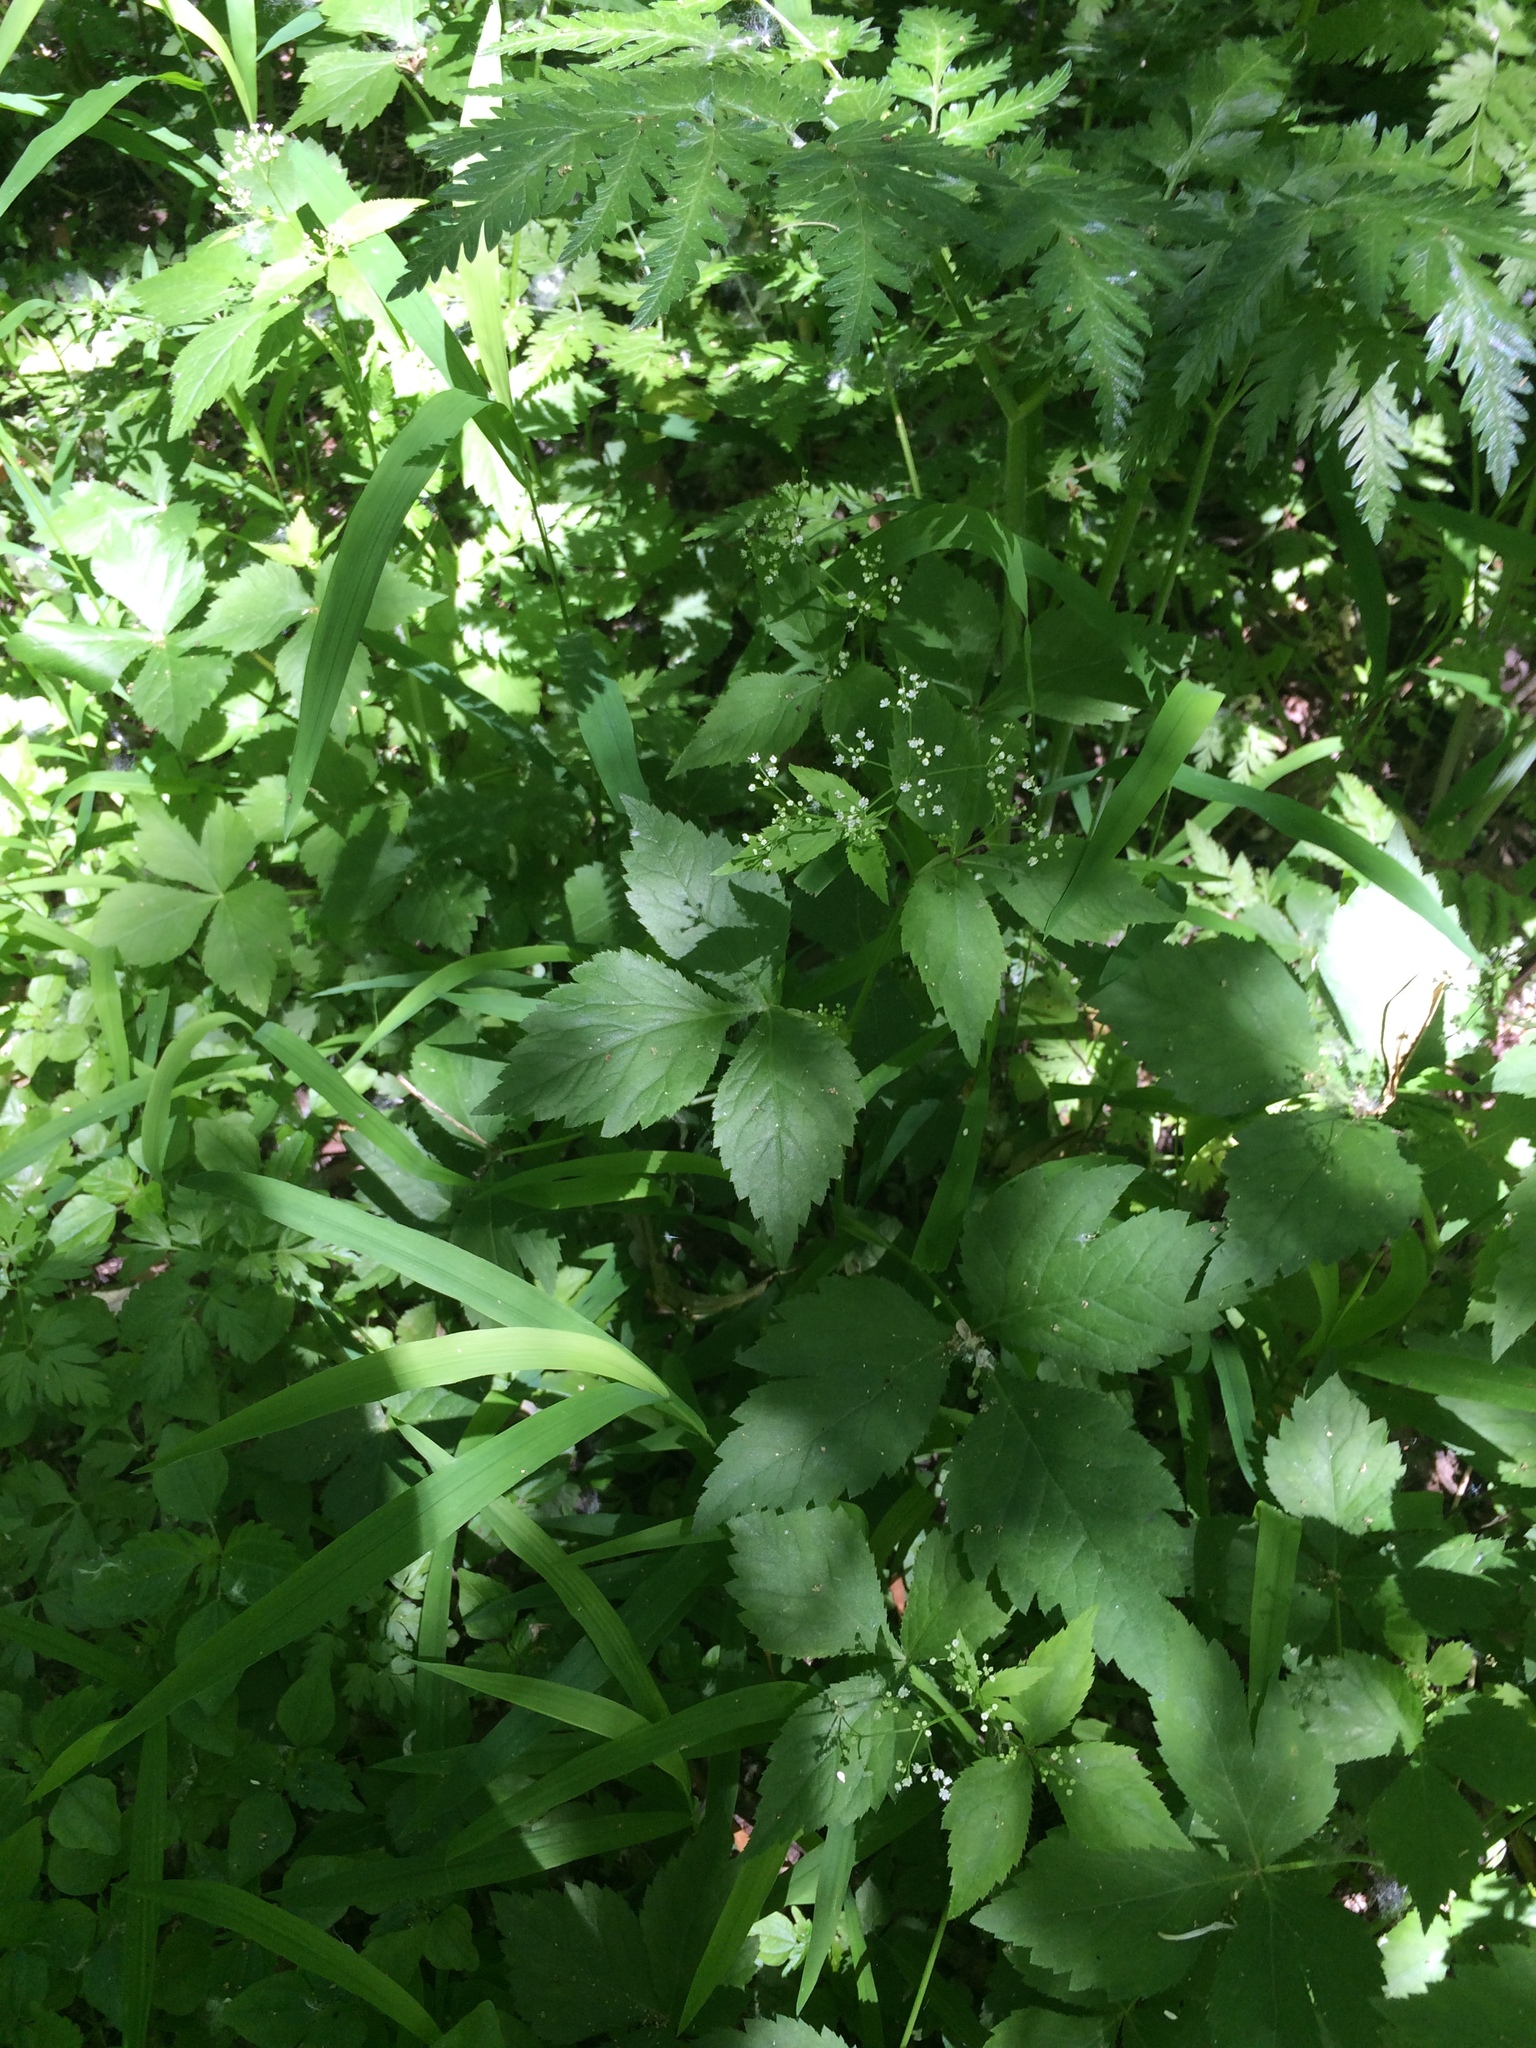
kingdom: Plantae
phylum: Tracheophyta
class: Magnoliopsida
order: Apiales
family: Apiaceae
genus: Cryptotaenia
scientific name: Cryptotaenia canadensis
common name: Honewort
